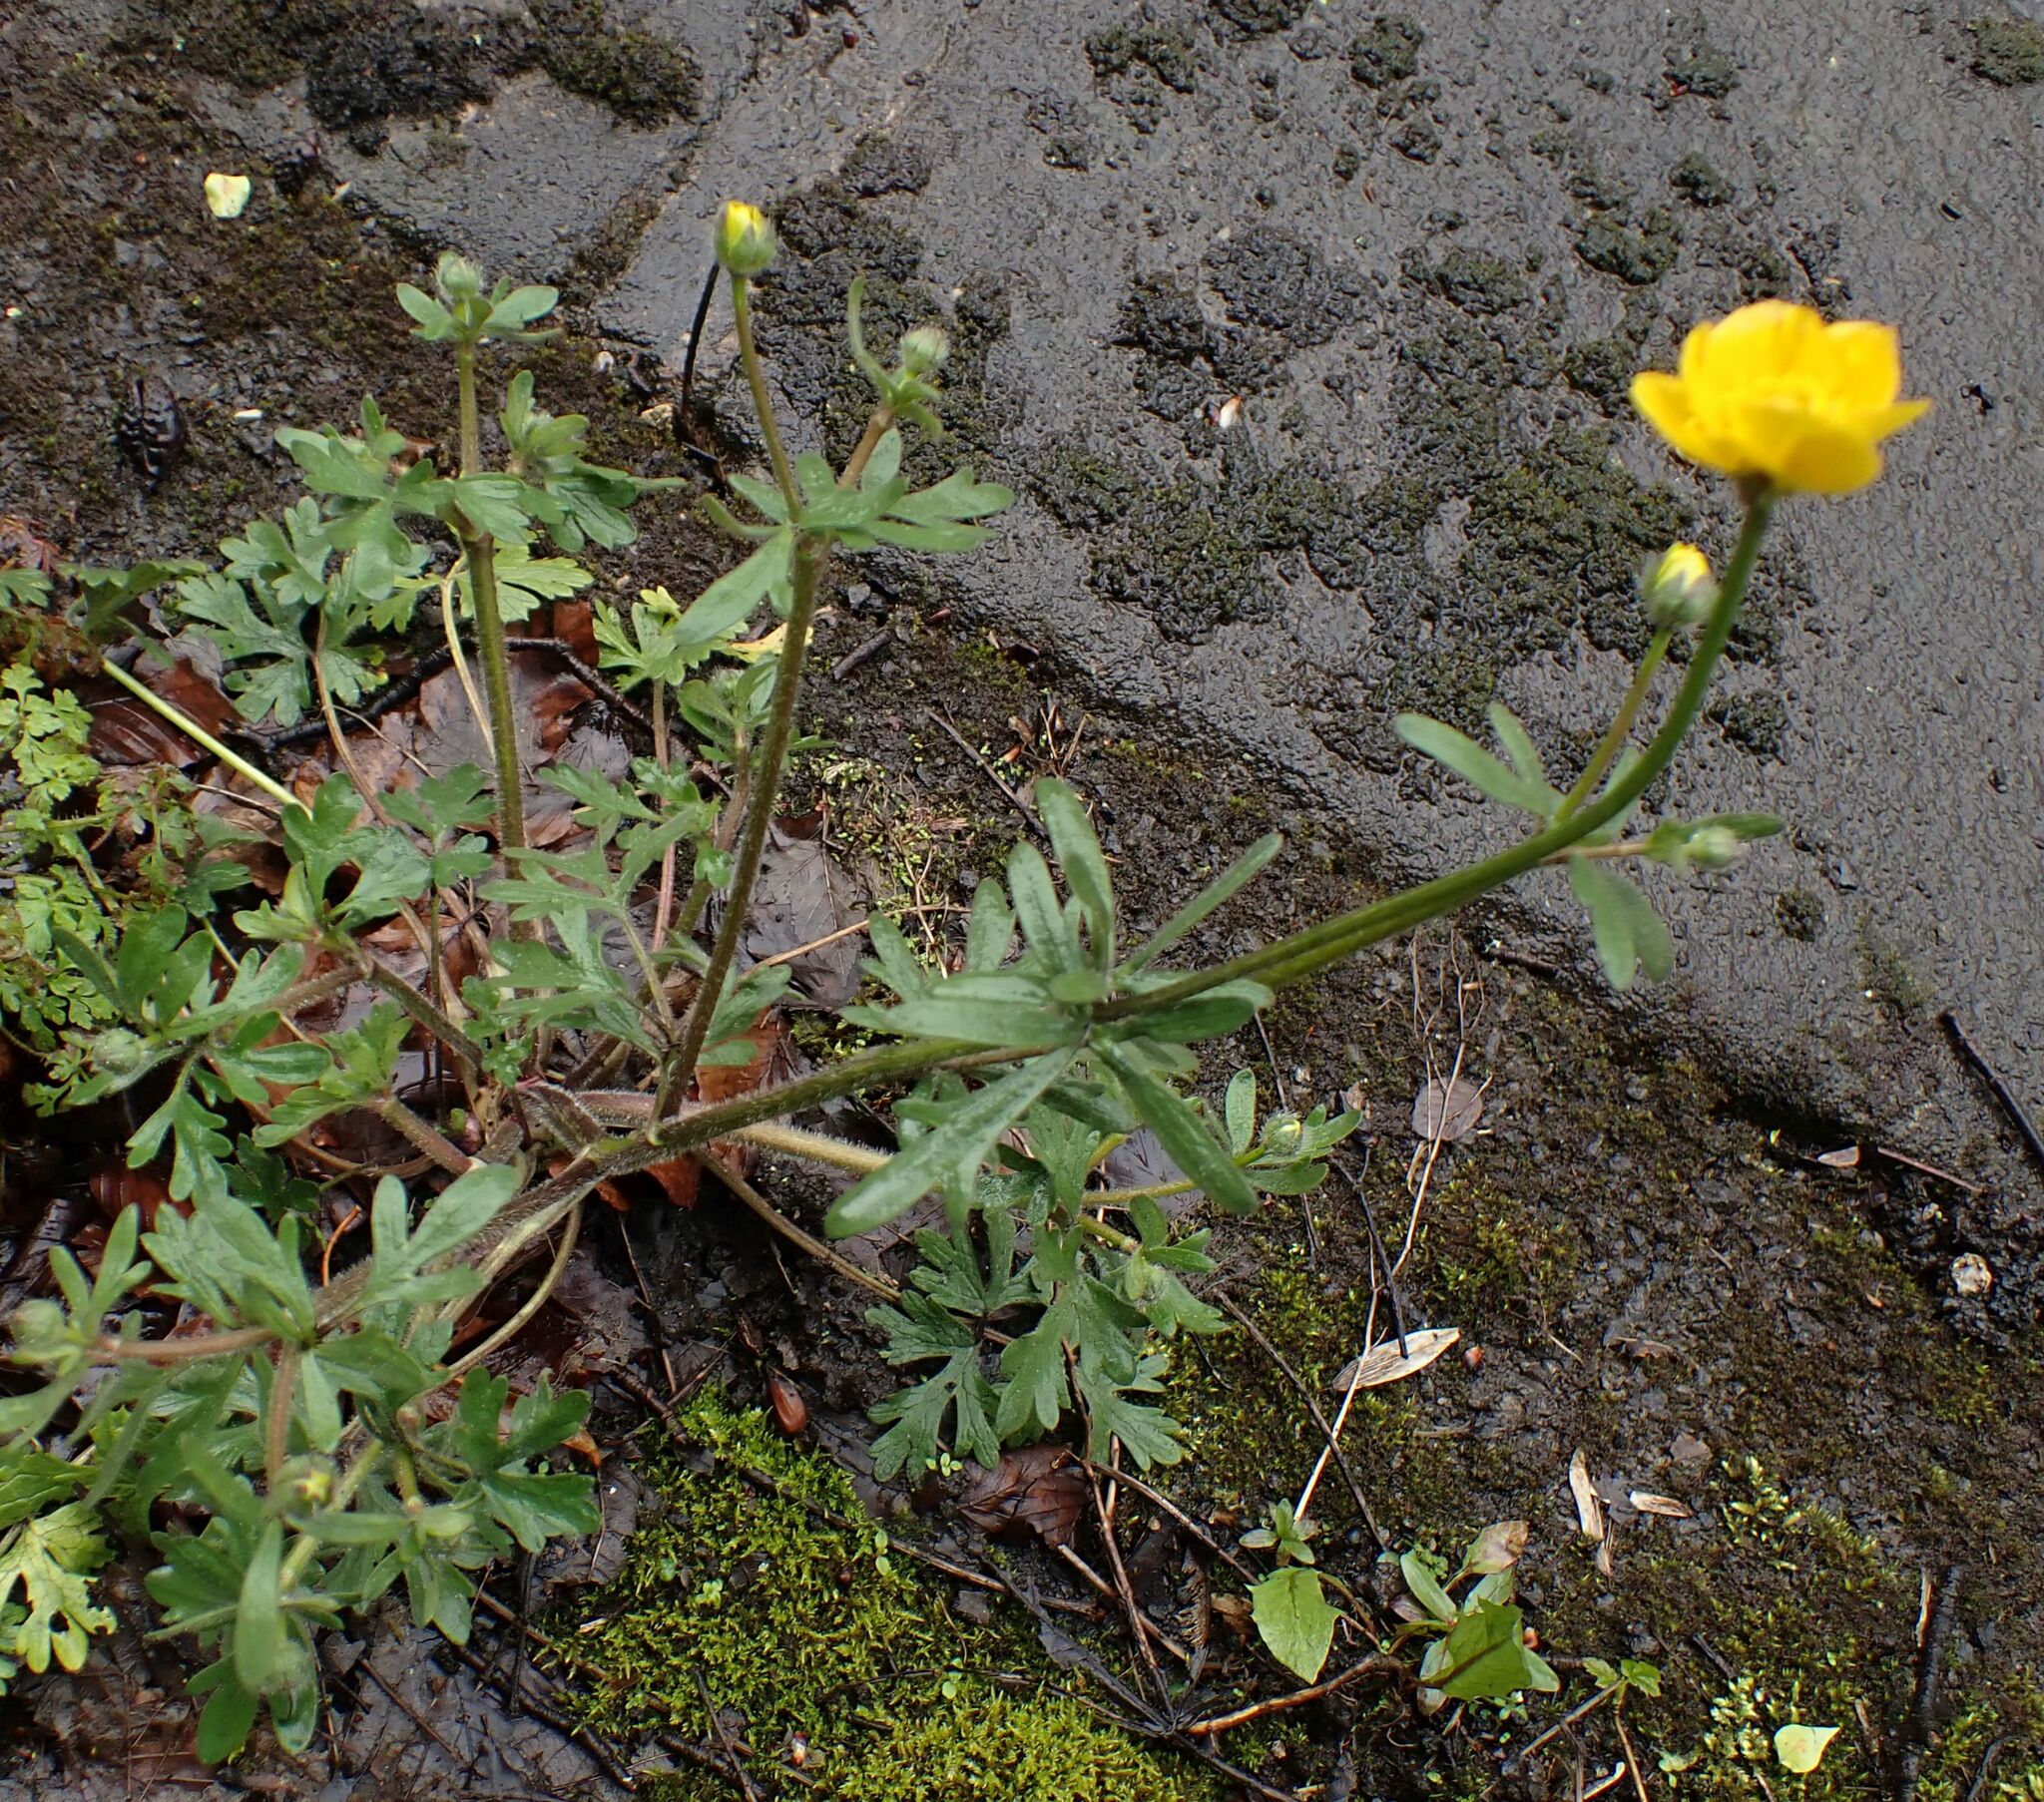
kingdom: Plantae
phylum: Tracheophyta
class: Magnoliopsida
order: Ranunculales
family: Ranunculaceae
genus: Ranunculus
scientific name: Ranunculus bulbosus
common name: Bulbous buttercup
